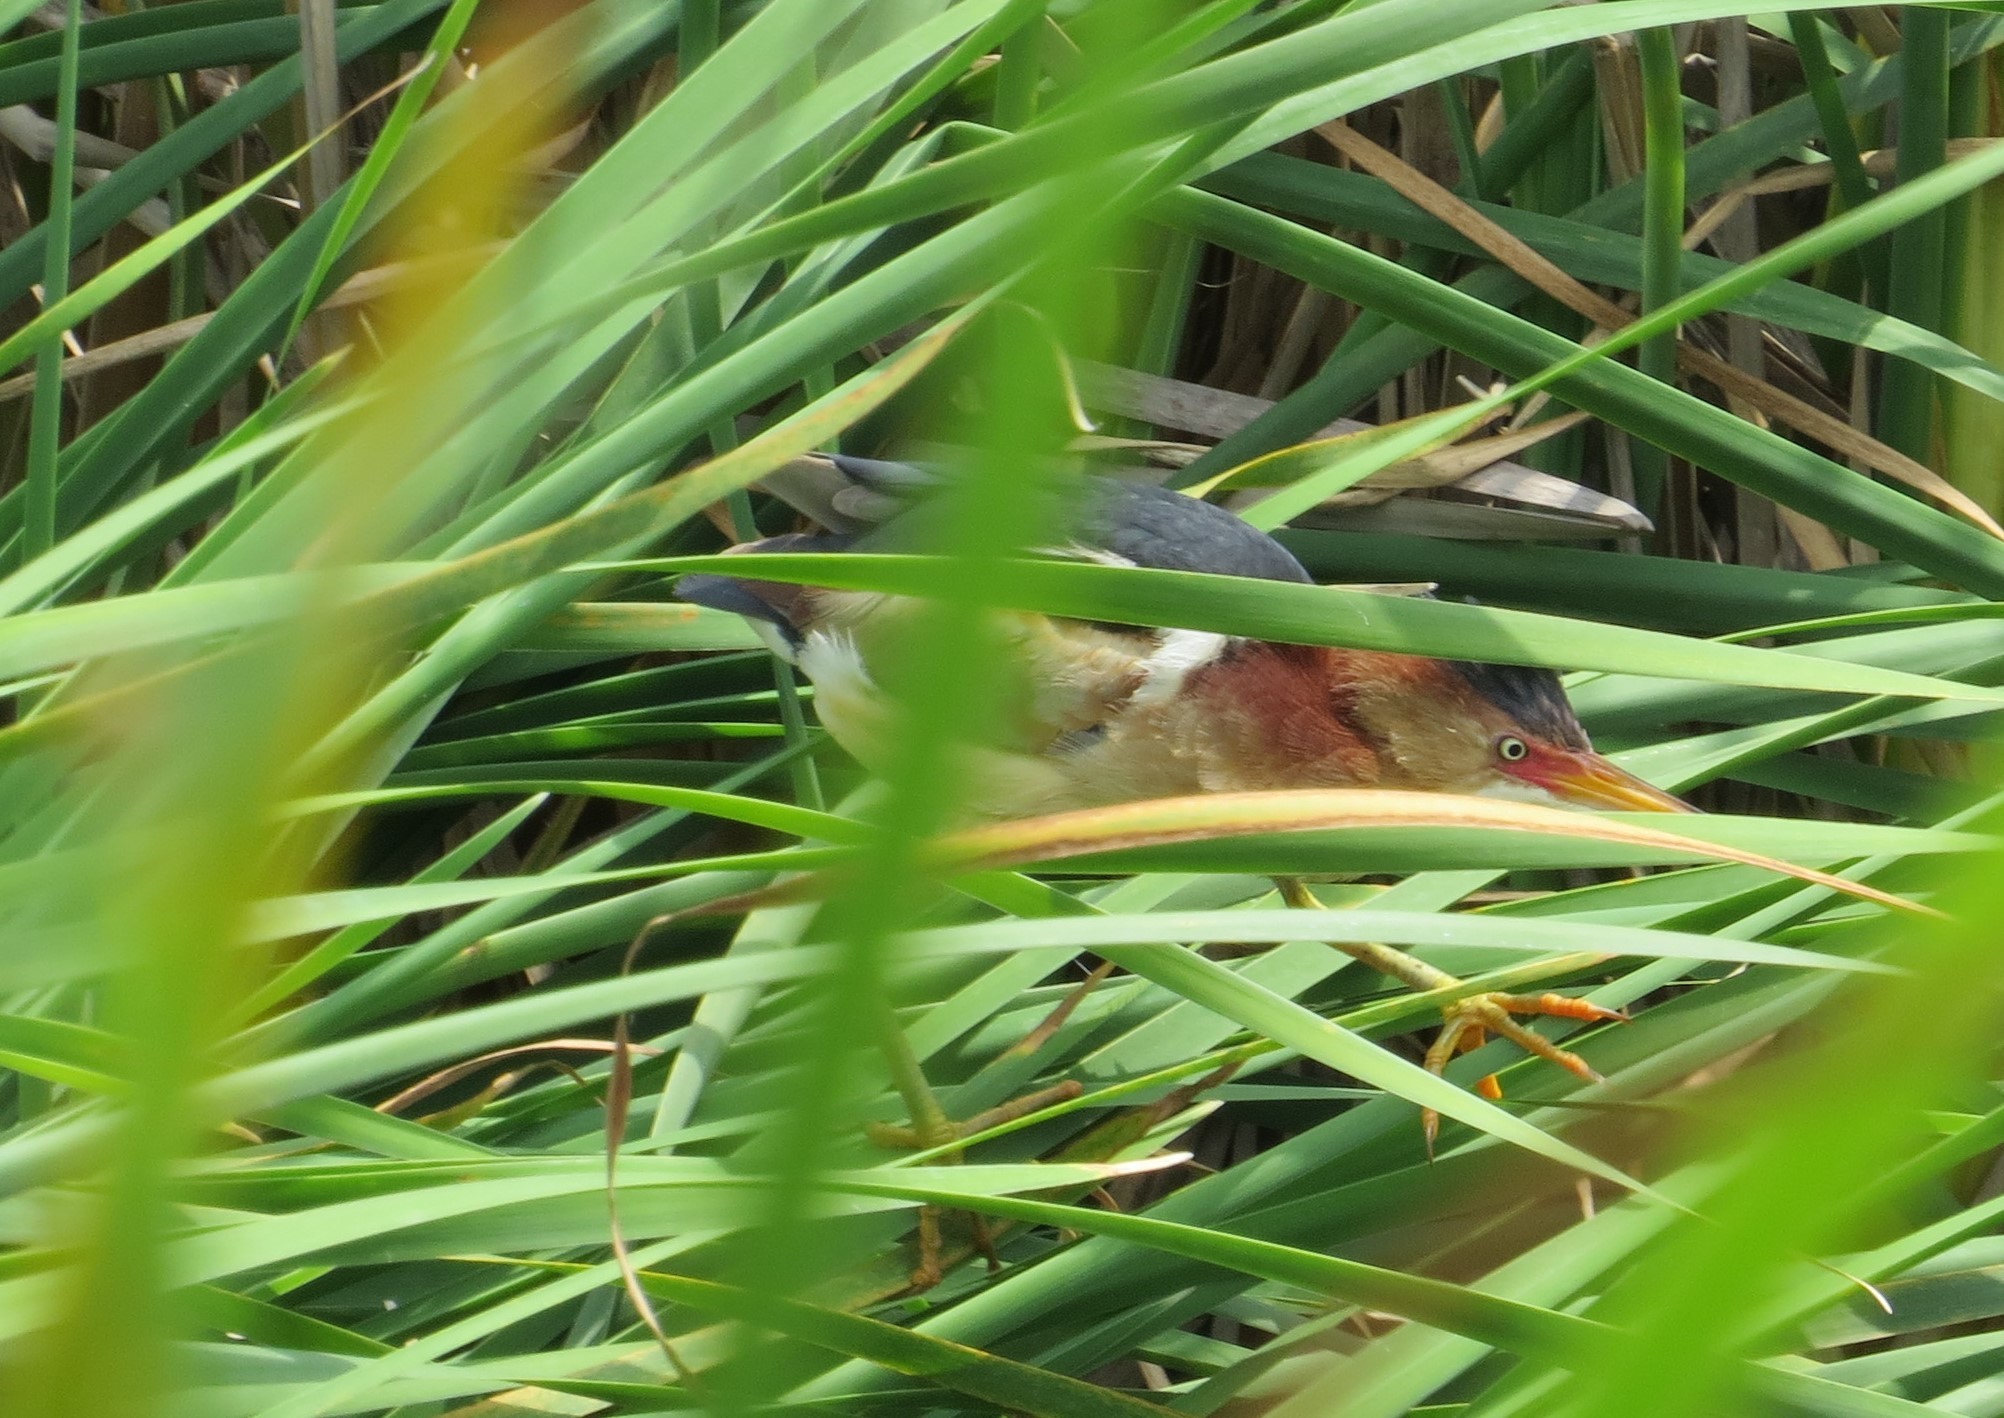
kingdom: Animalia
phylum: Chordata
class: Aves
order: Pelecaniformes
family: Ardeidae
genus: Ixobrychus
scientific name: Ixobrychus exilis
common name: Least bittern
